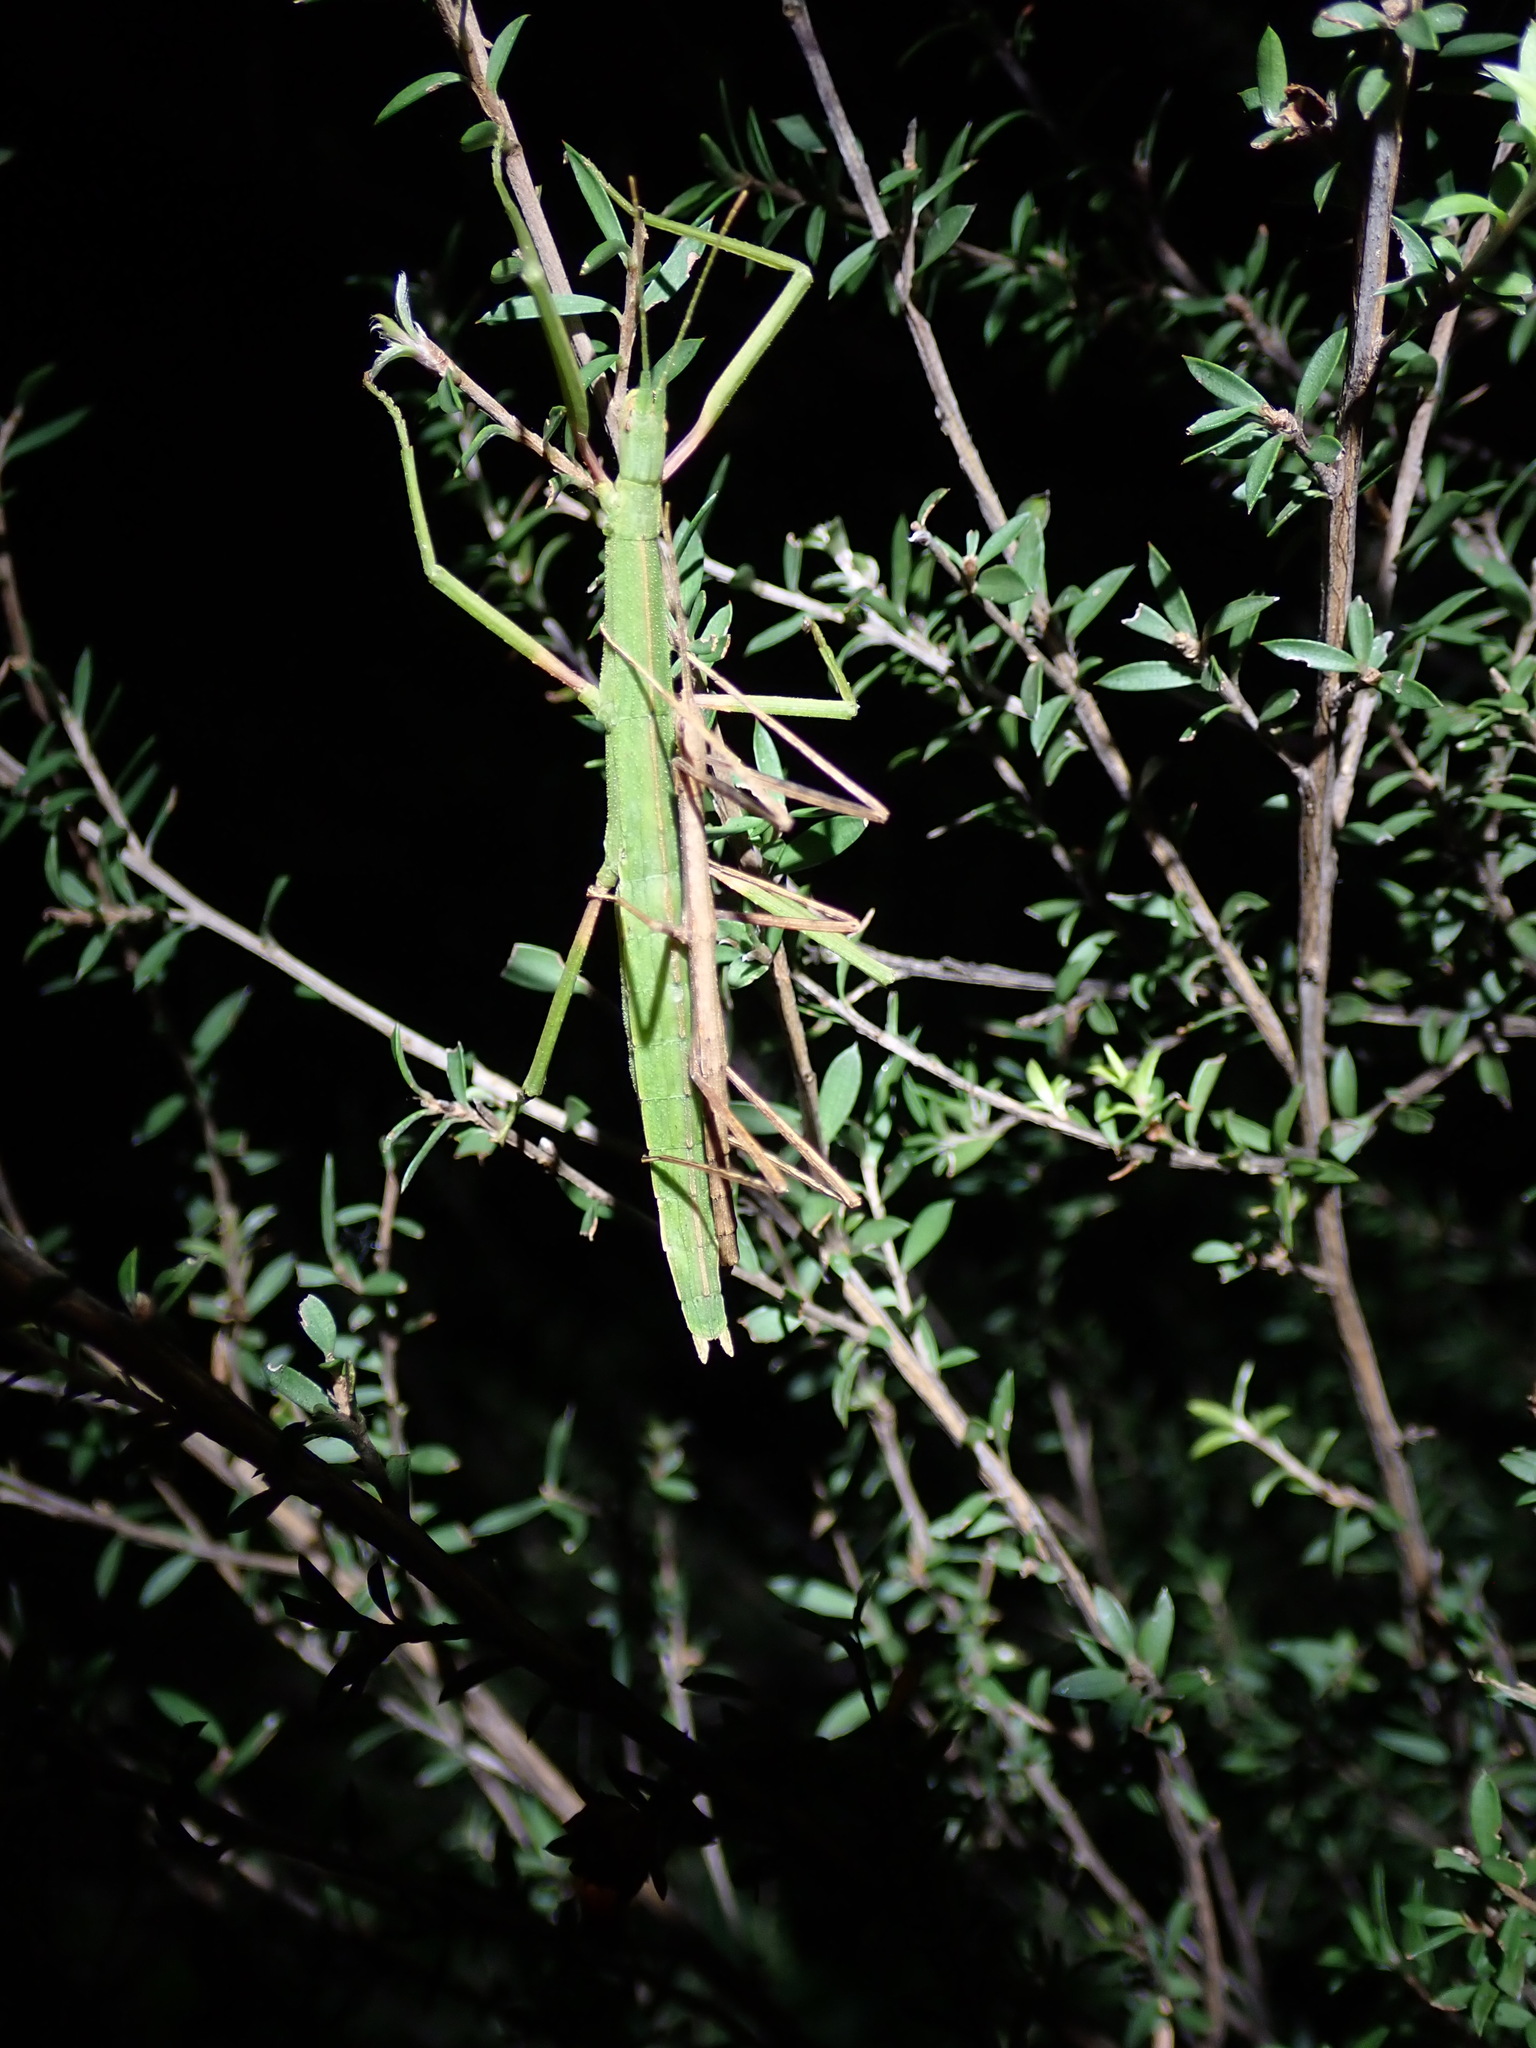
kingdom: Animalia
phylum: Arthropoda
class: Insecta
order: Phasmida
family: Phasmatidae
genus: Tectarchus
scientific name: Tectarchus huttoni
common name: The common ridge-backed stick insect
